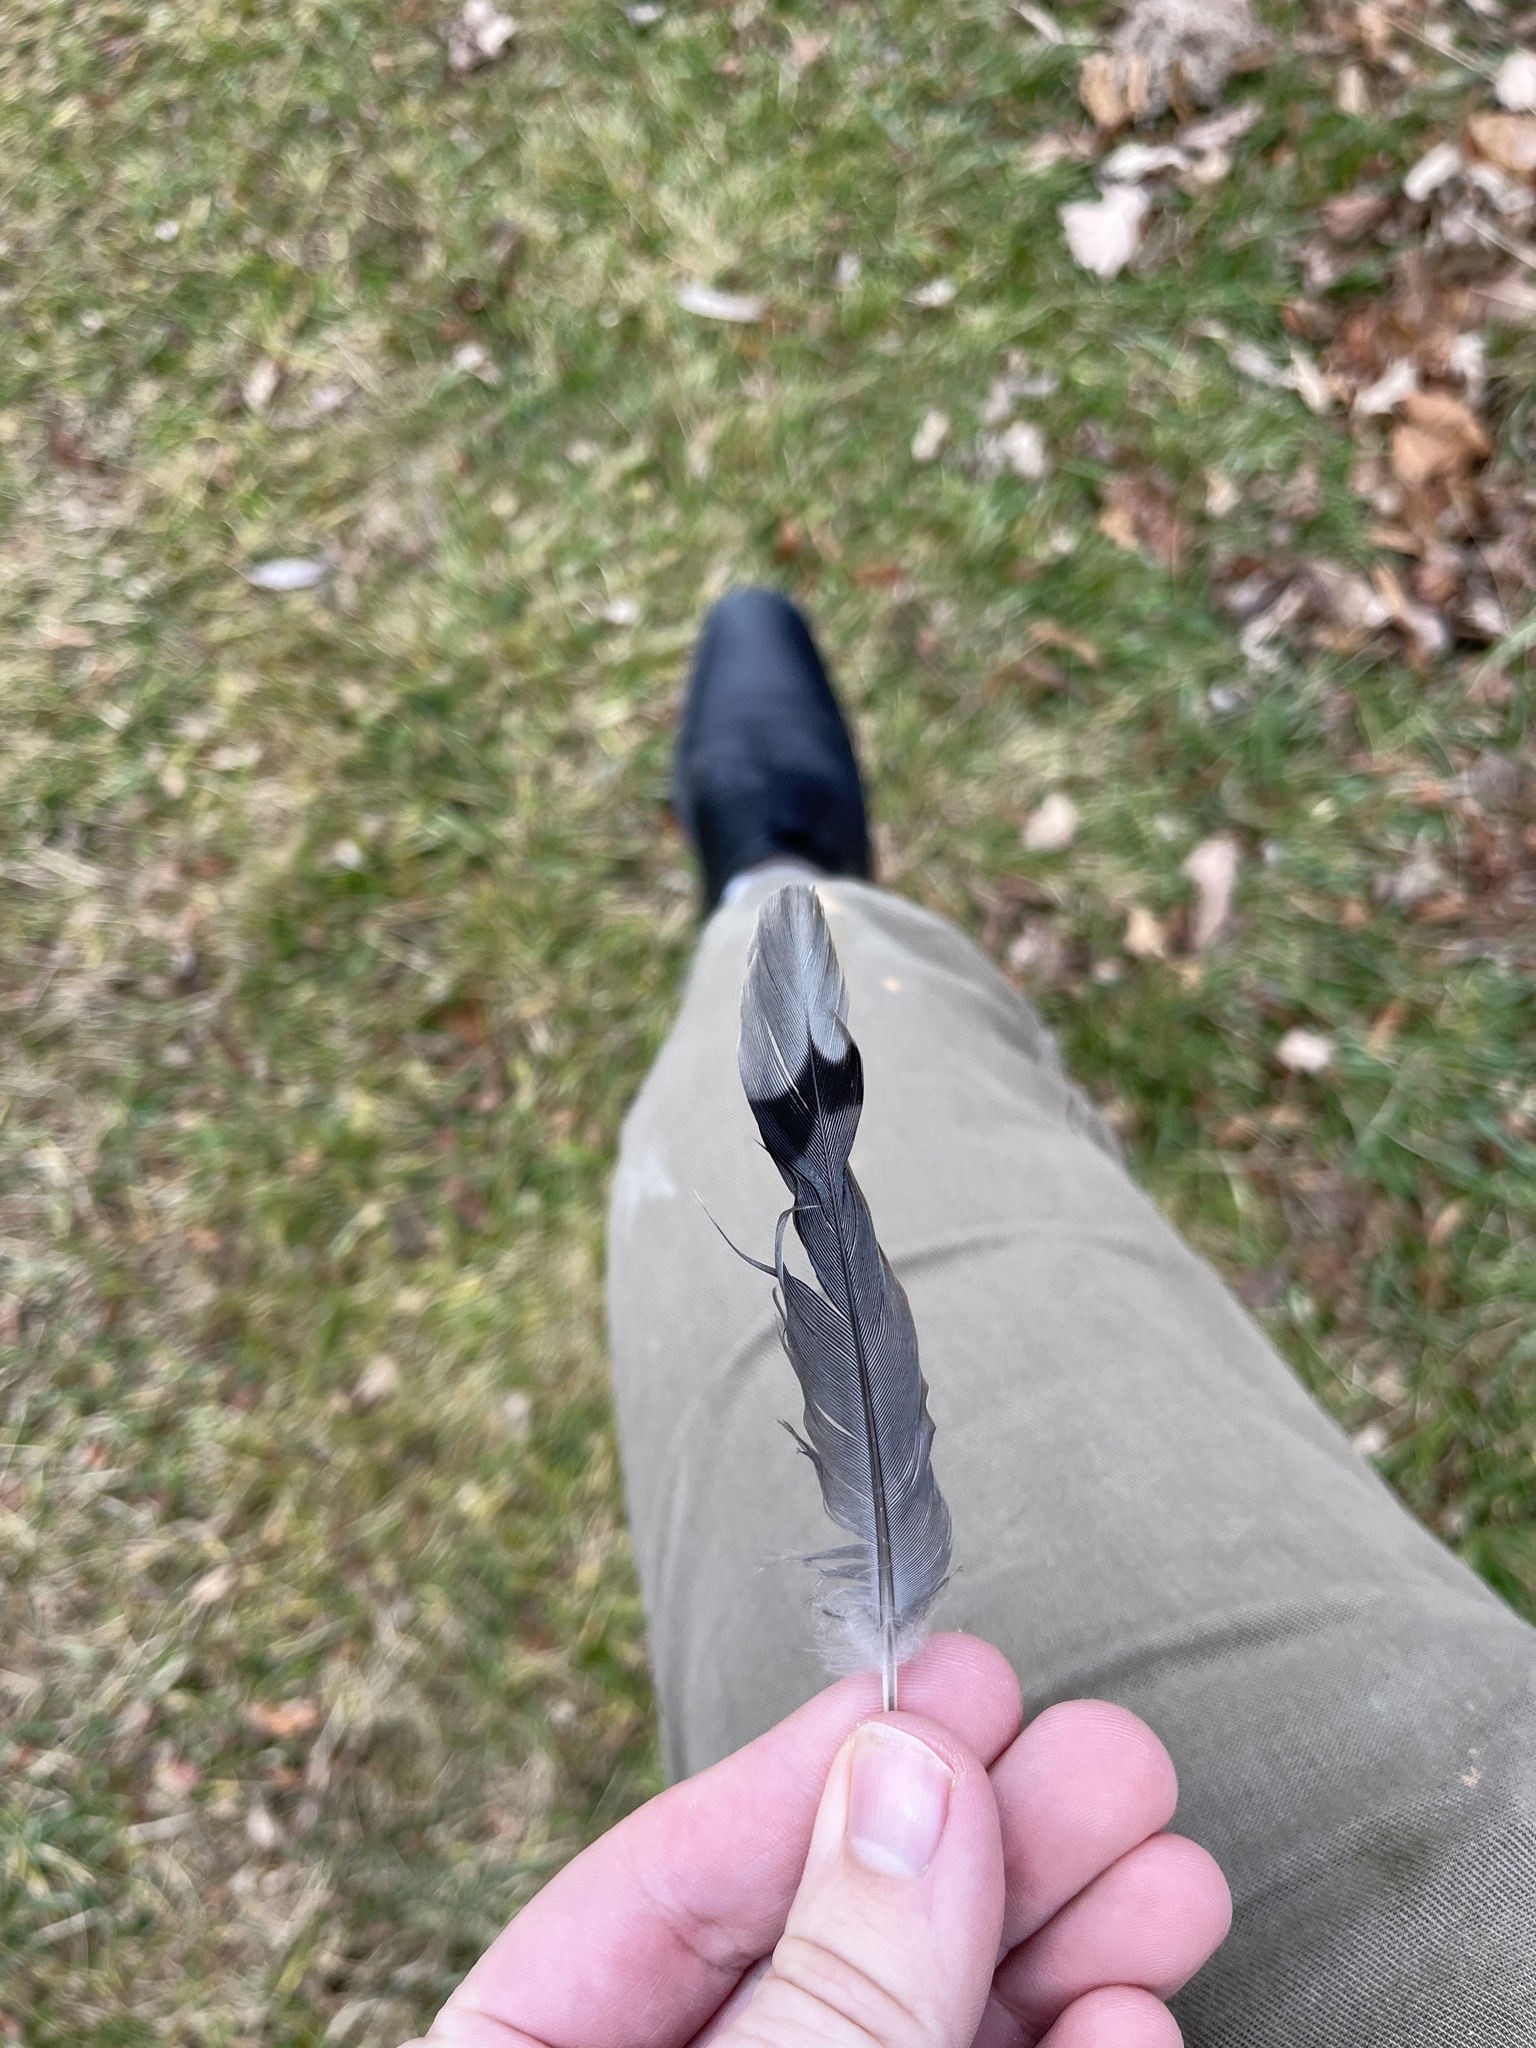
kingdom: Animalia
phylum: Chordata
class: Aves
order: Columbiformes
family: Columbidae
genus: Zenaida
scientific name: Zenaida macroura
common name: Mourning dove
